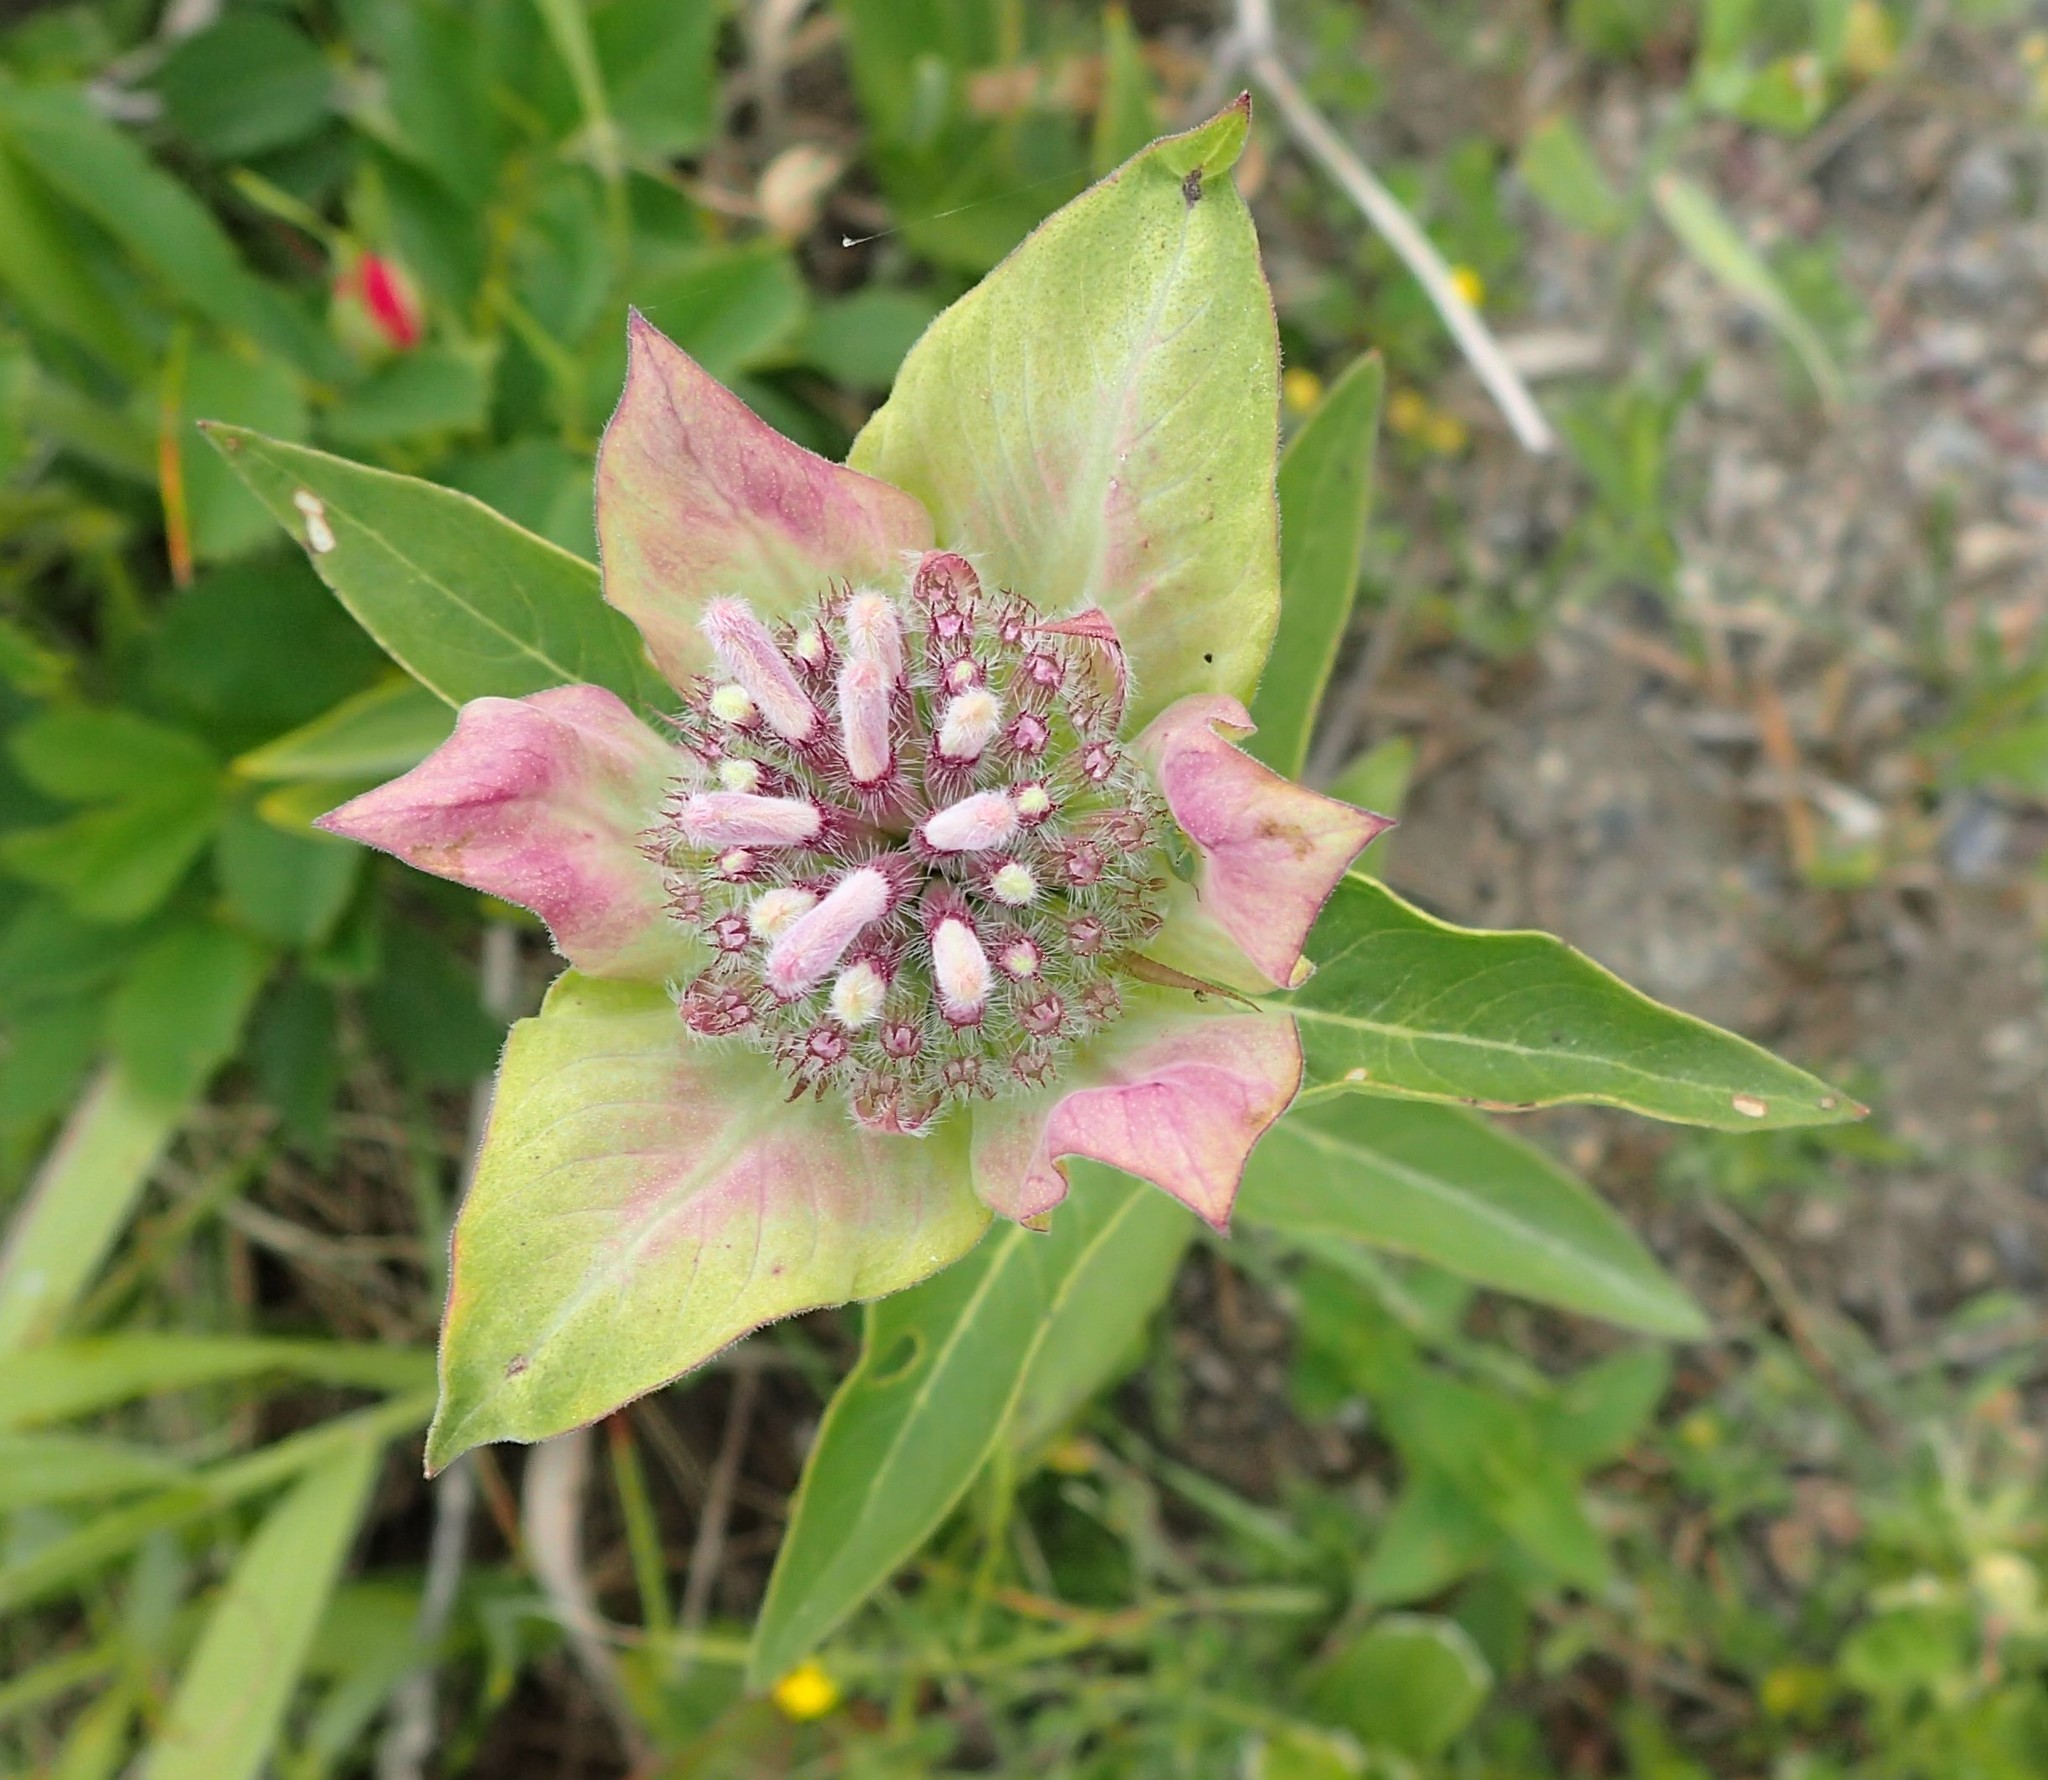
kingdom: Plantae
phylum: Tracheophyta
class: Magnoliopsida
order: Lamiales
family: Lamiaceae
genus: Monarda
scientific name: Monarda fistulosa
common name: Purple beebalm
